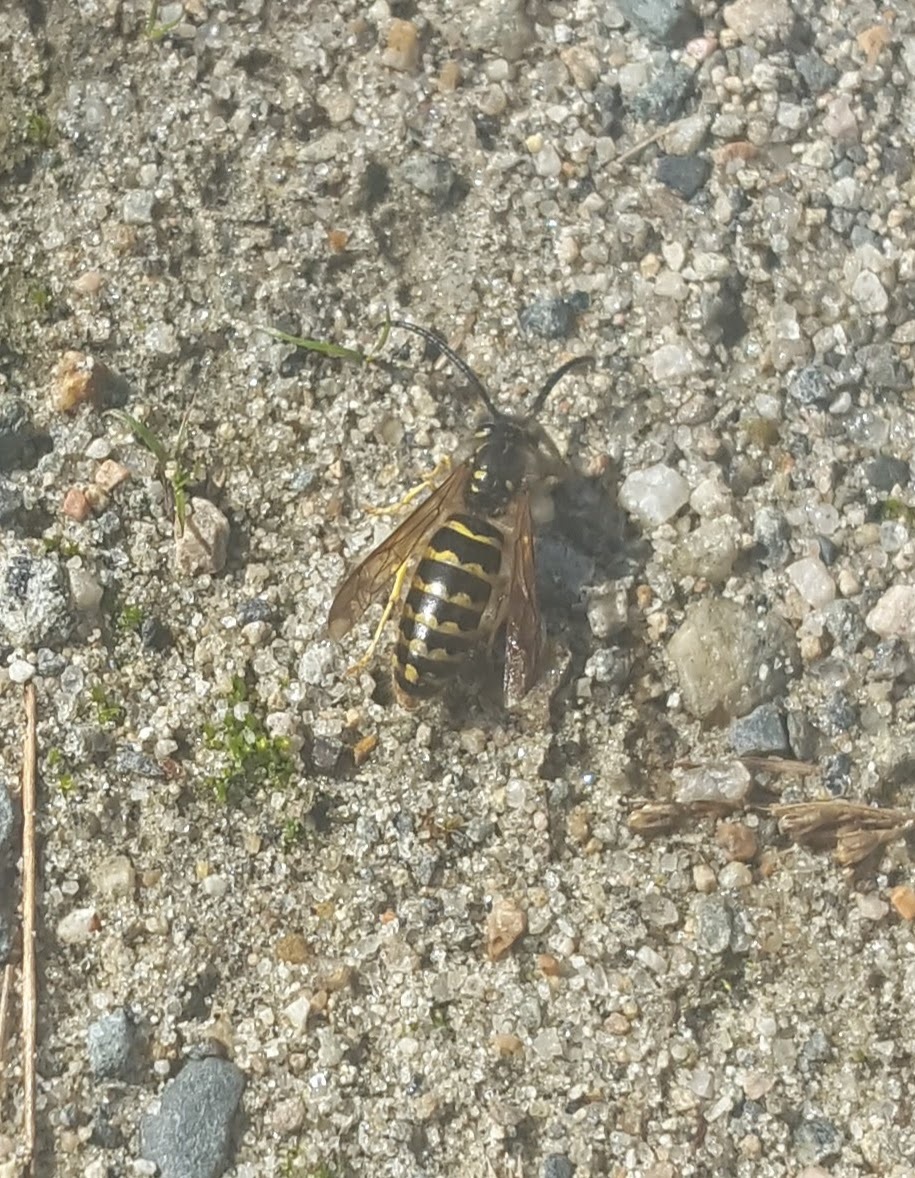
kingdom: Animalia
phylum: Arthropoda
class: Insecta
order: Hymenoptera
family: Vespidae
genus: Vespula
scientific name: Vespula
